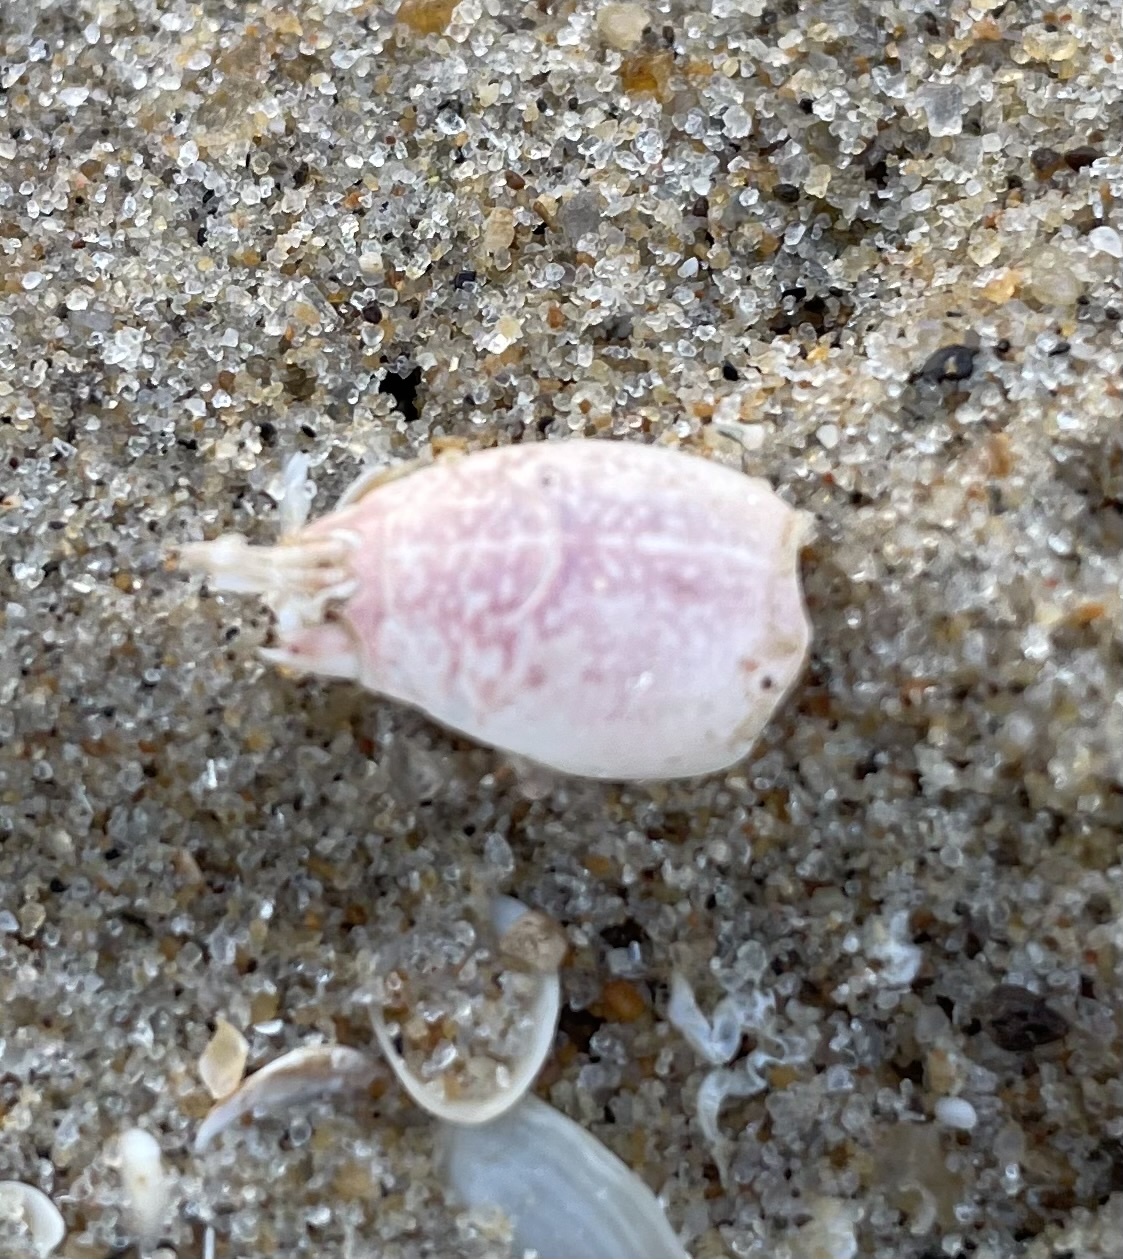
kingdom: Animalia
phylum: Arthropoda
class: Malacostraca
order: Decapoda
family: Hippidae
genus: Emerita
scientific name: Emerita talpoida
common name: Atlantic sand crab
